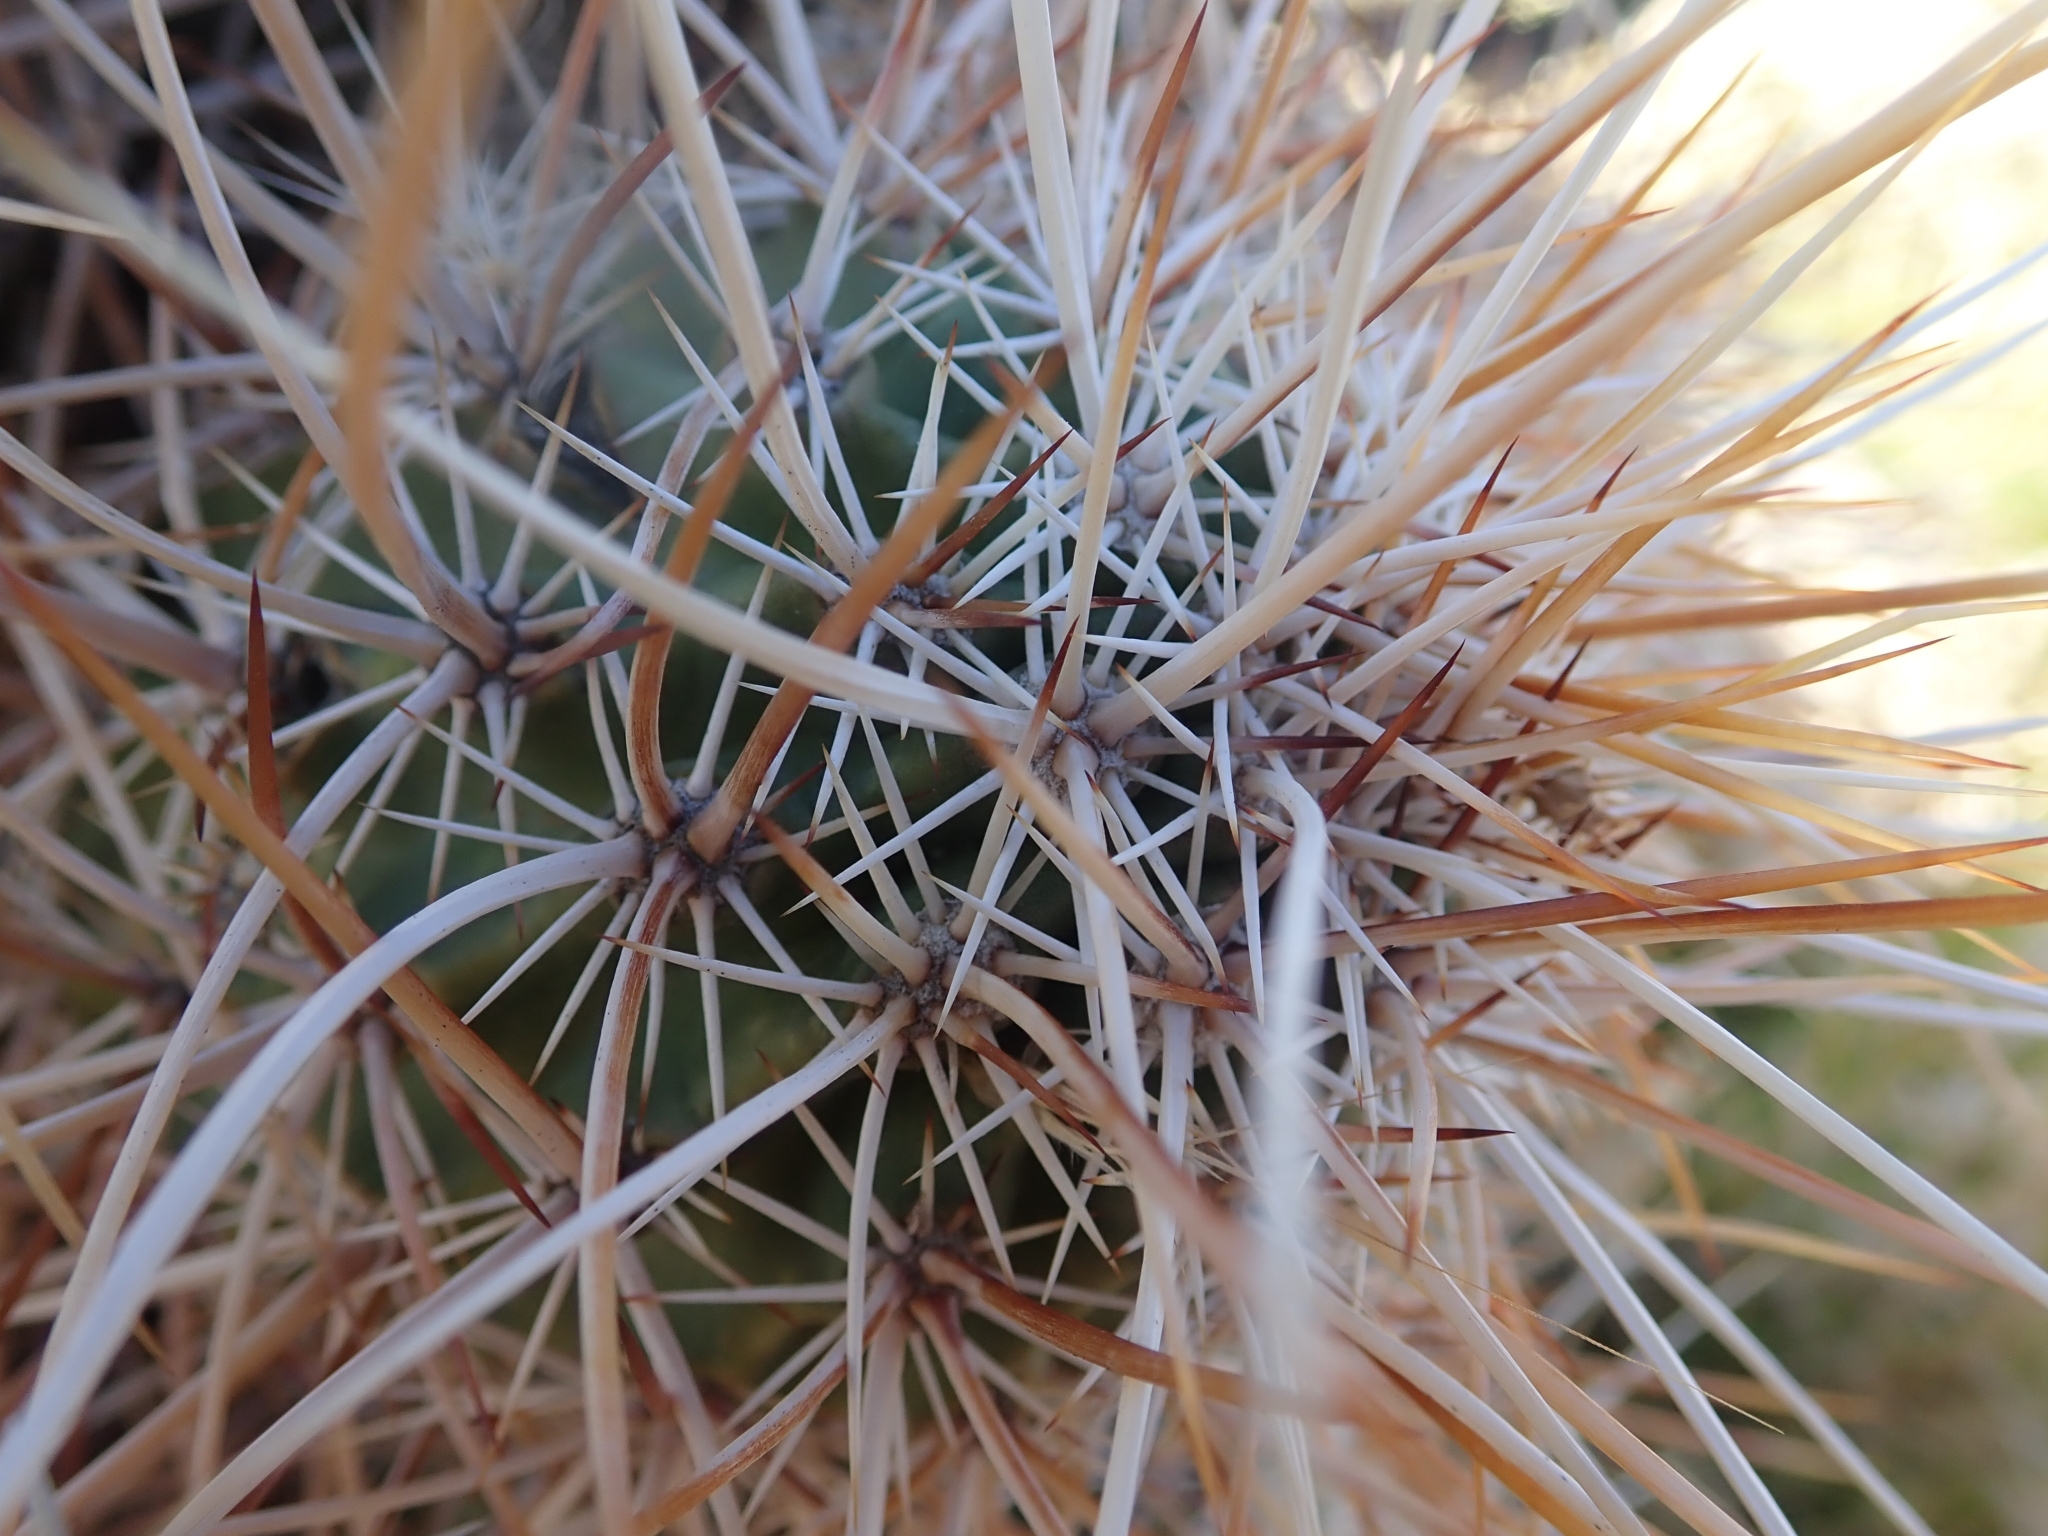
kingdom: Plantae
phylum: Tracheophyta
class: Magnoliopsida
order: Caryophyllales
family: Cactaceae
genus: Echinocereus
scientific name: Echinocereus engelmannii
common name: Engelmann's hedgehog cactus
